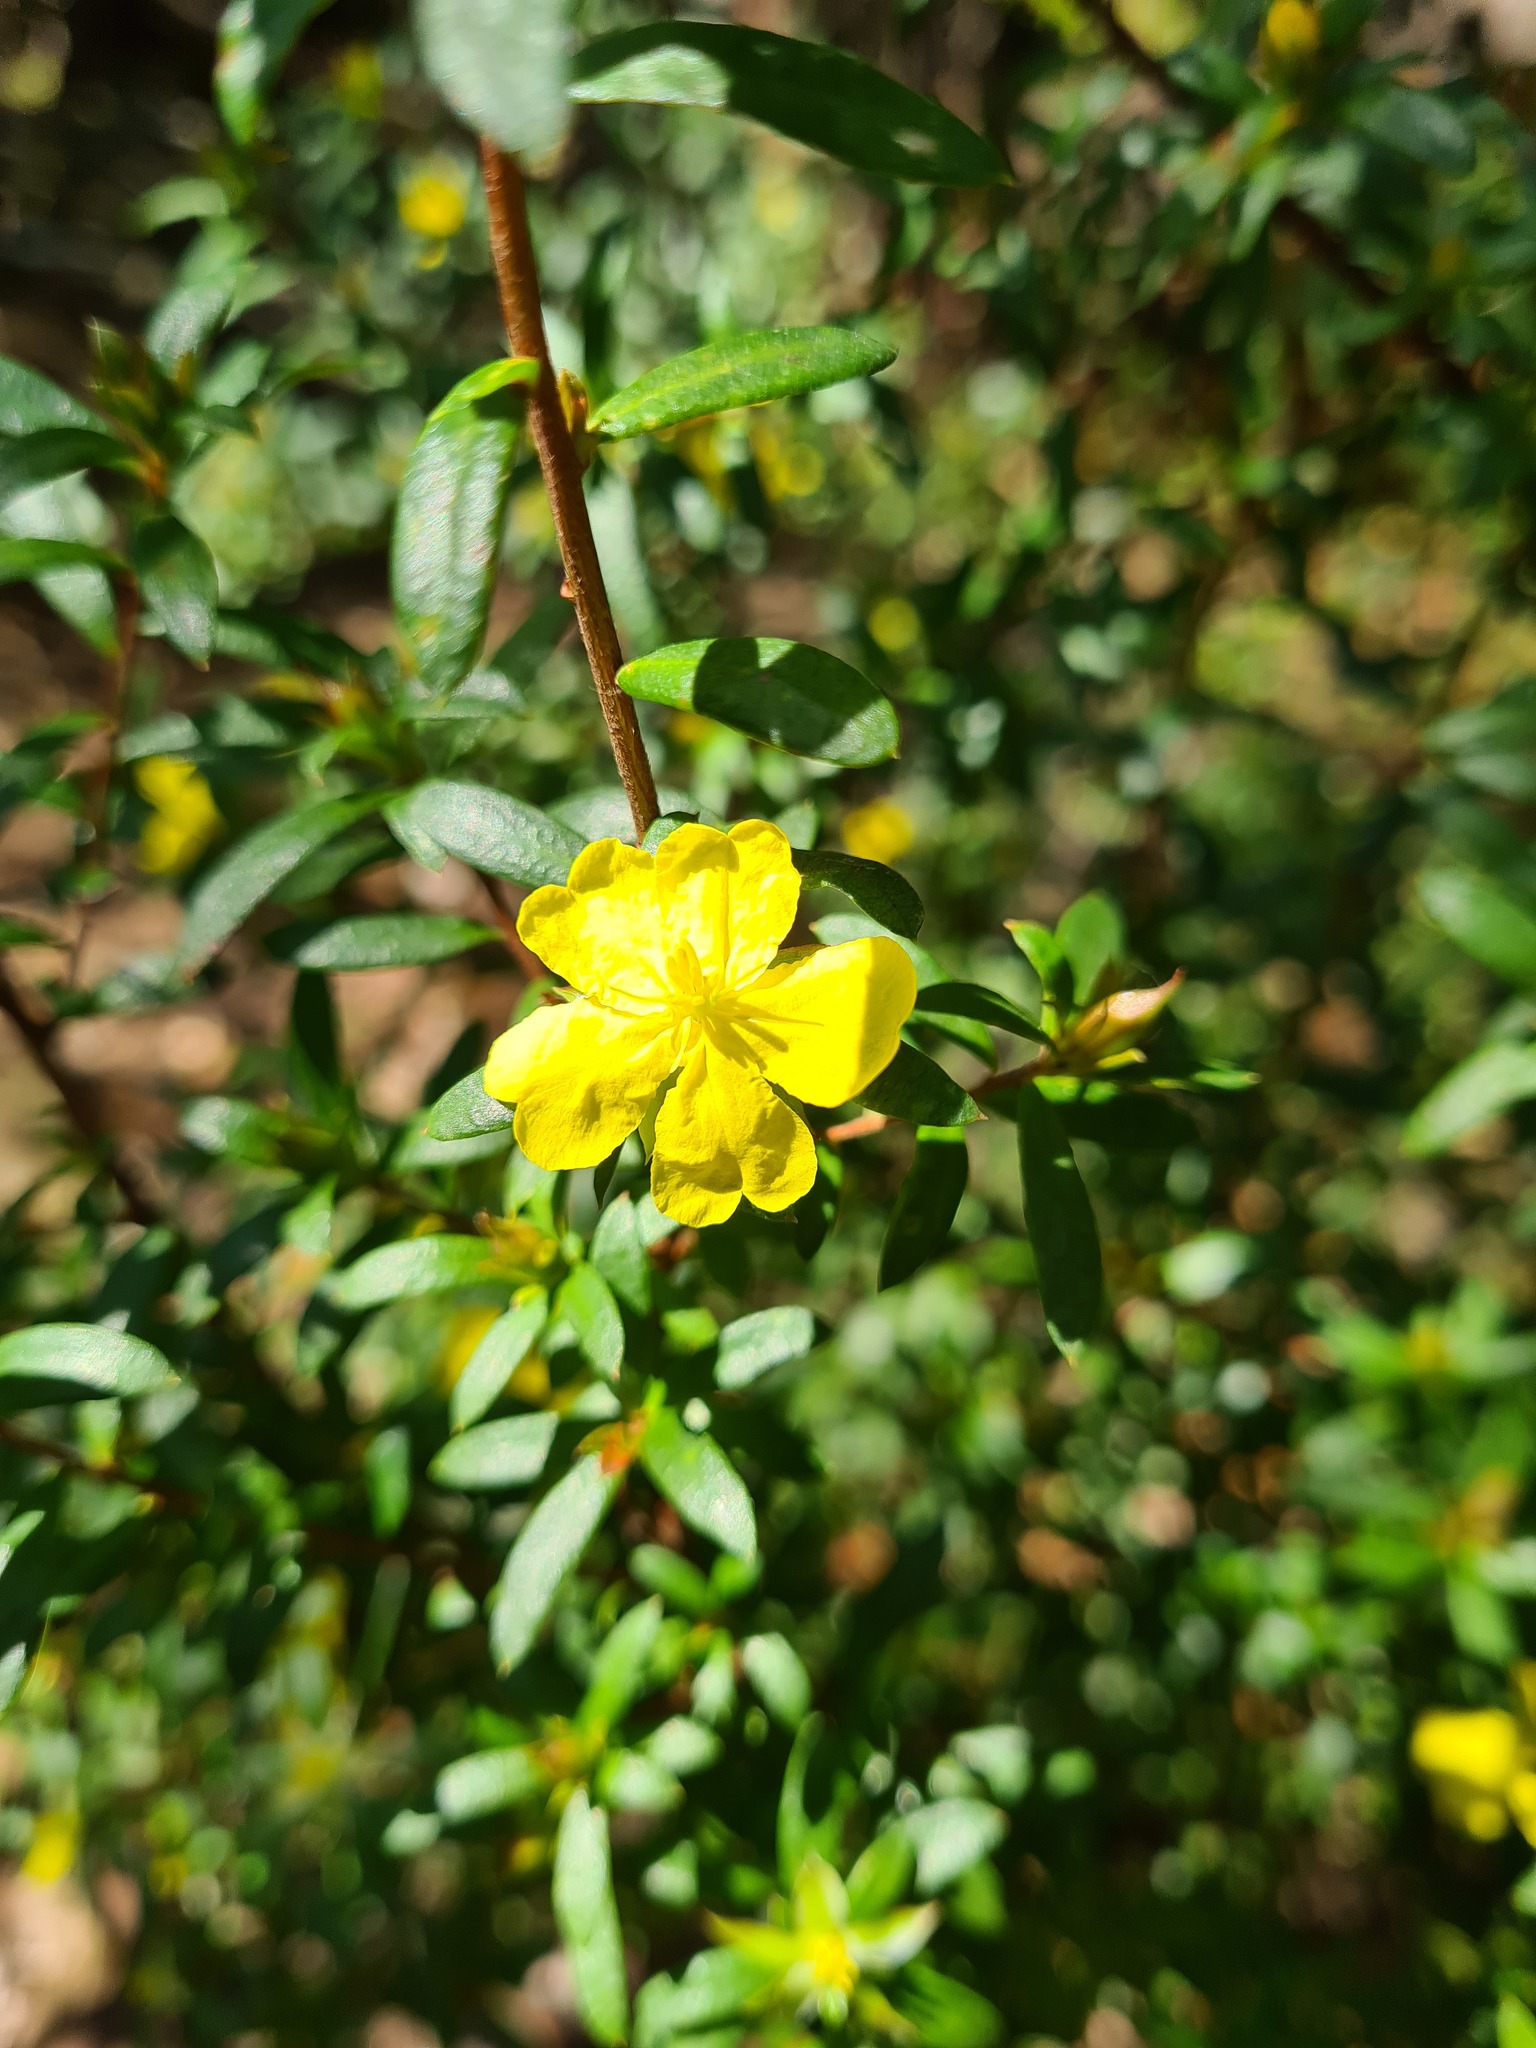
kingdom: Plantae
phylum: Tracheophyta
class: Magnoliopsida
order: Dilleniales
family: Dilleniaceae
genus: Hibbertia
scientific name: Hibbertia bracteata
